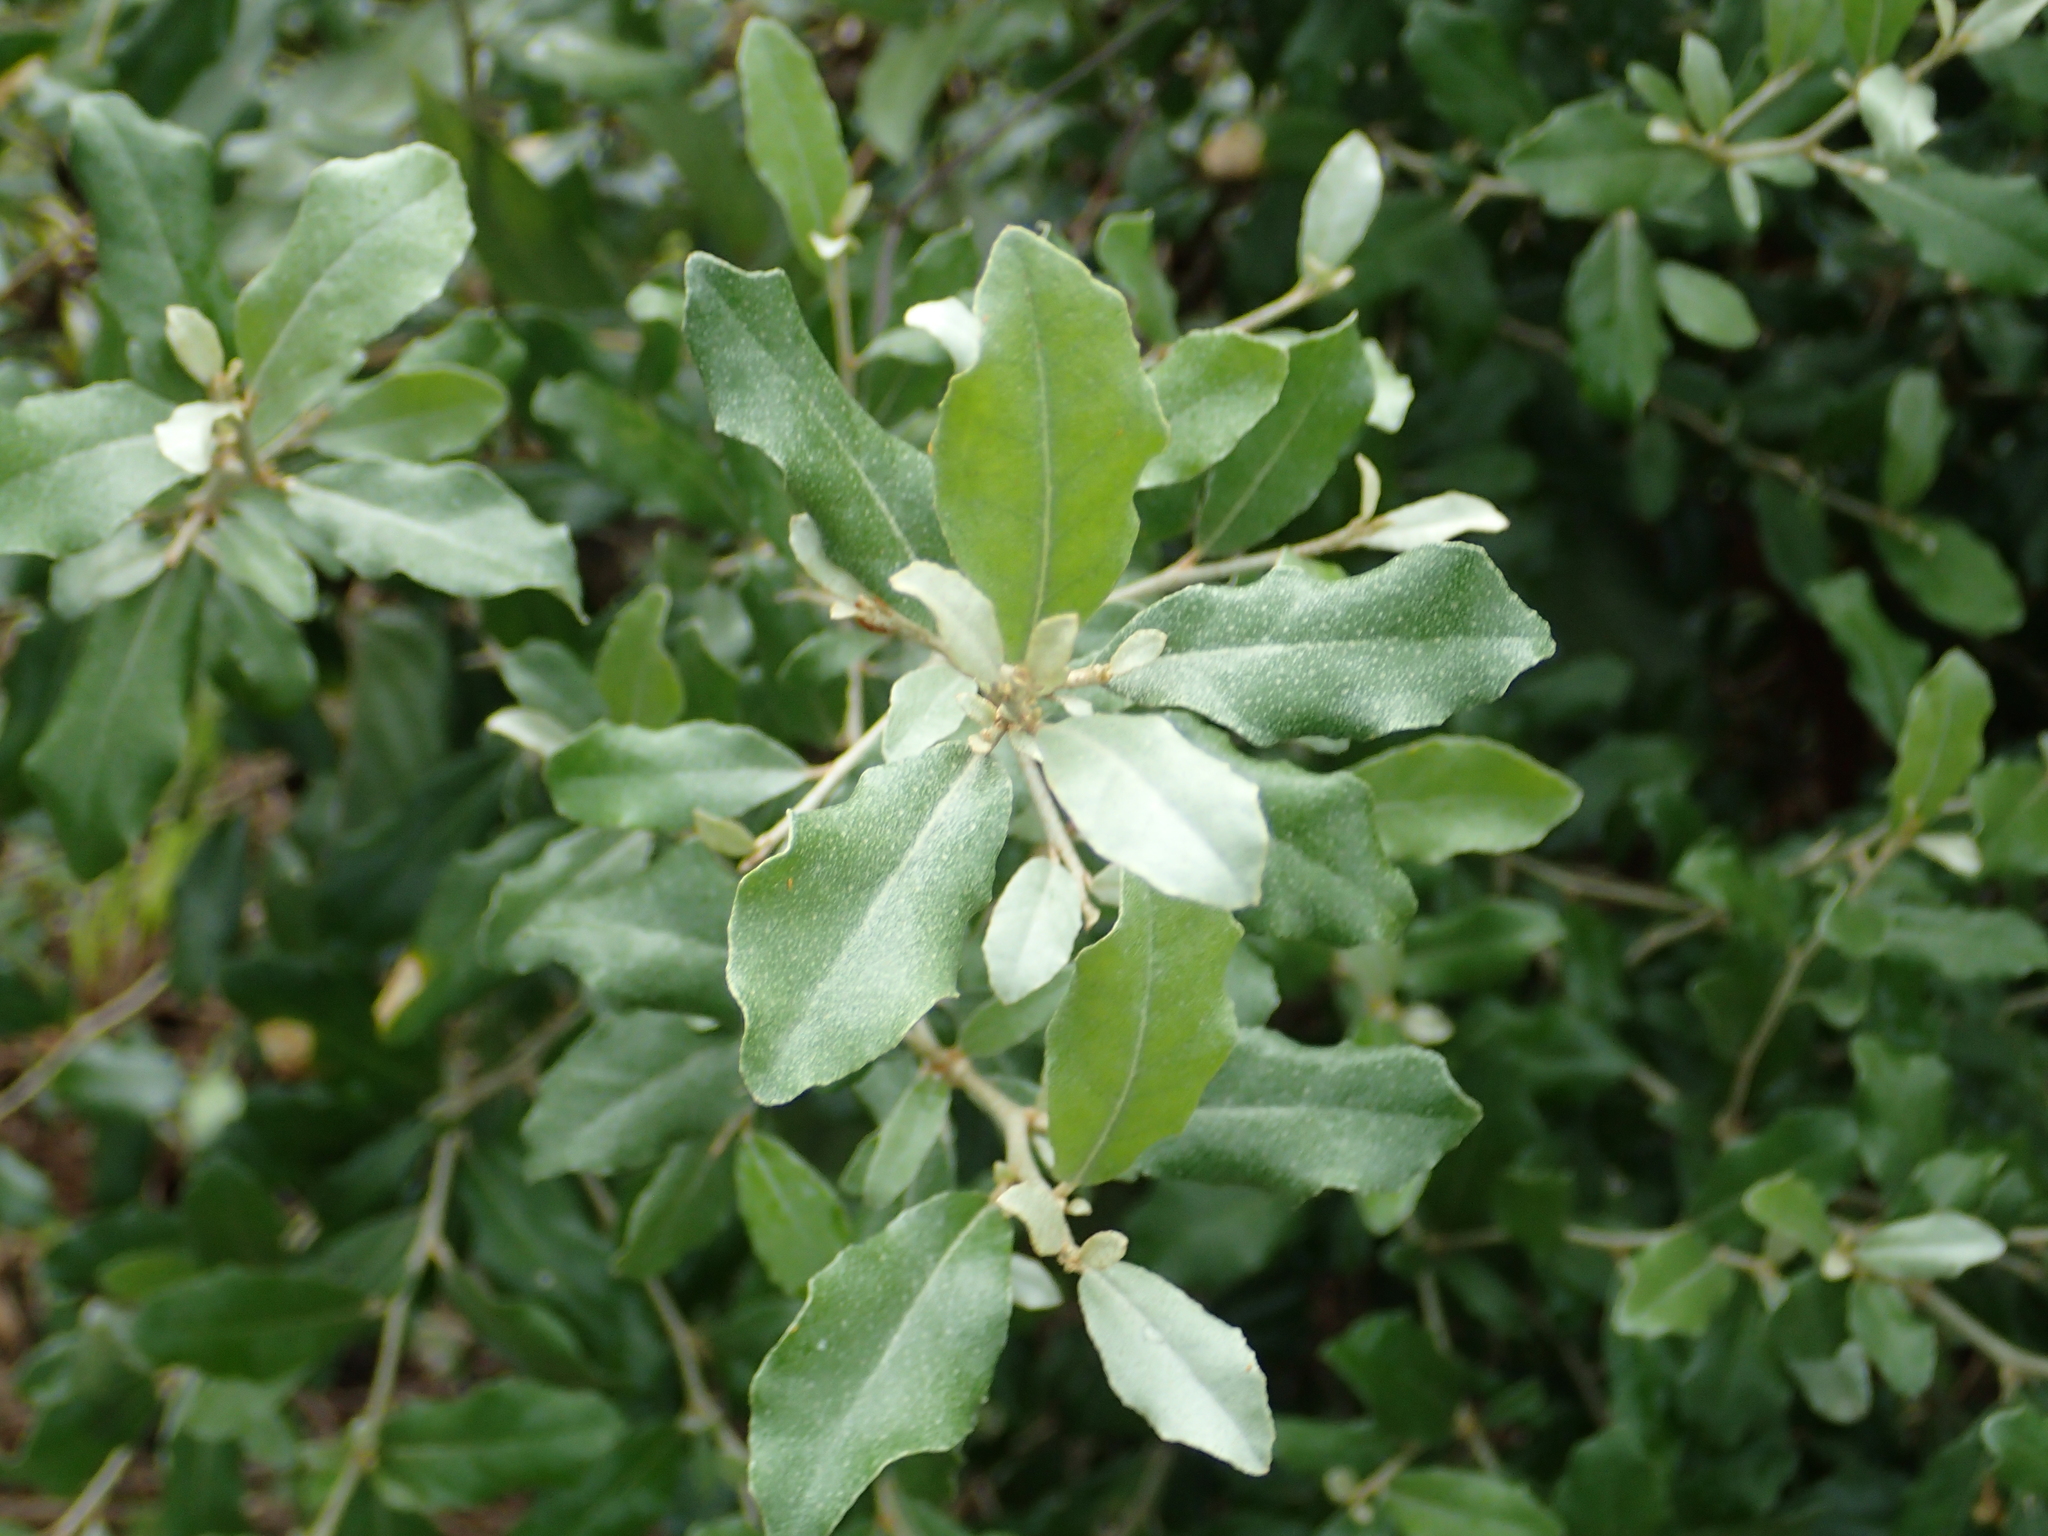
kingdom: Plantae
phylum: Tracheophyta
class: Magnoliopsida
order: Rosales
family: Elaeagnaceae
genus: Elaeagnus
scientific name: Elaeagnus oldhamii
